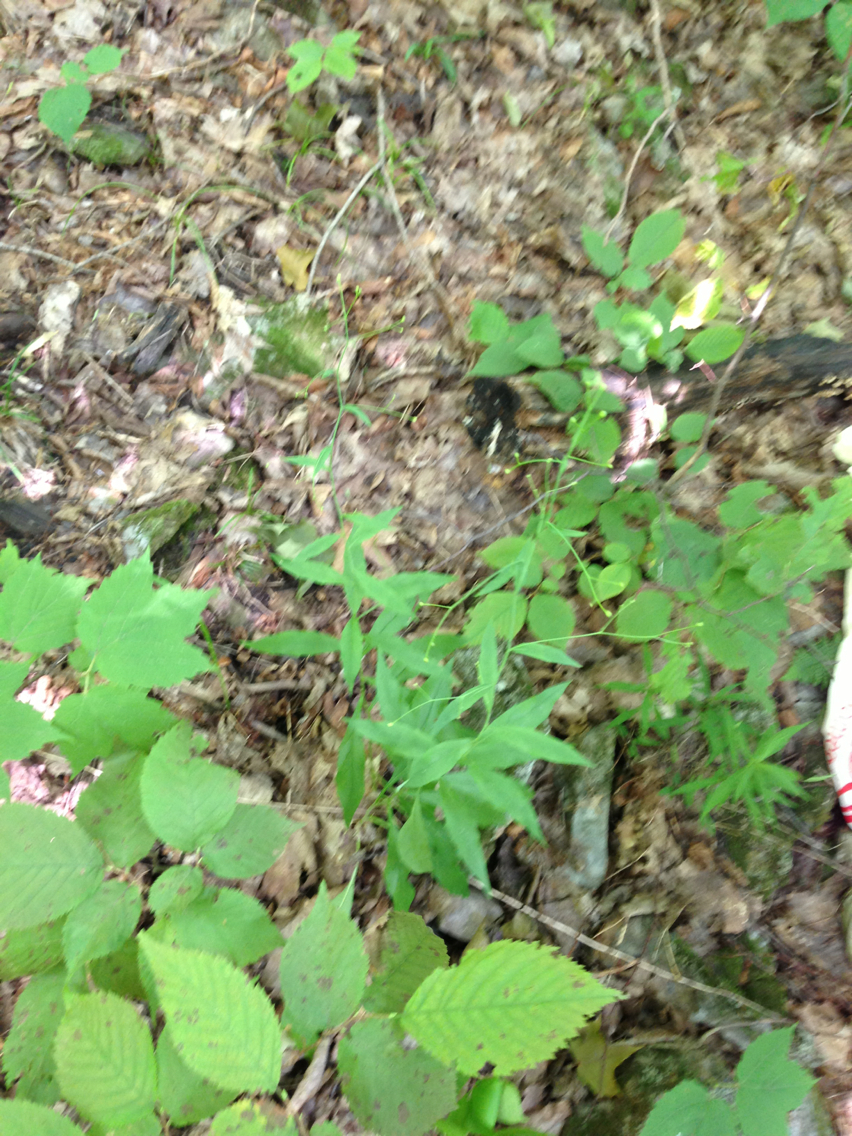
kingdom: Plantae
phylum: Tracheophyta
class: Magnoliopsida
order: Asterales
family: Asteraceae
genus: Hieracium
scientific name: Hieracium paniculatum
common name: Allegheny hawkweed
